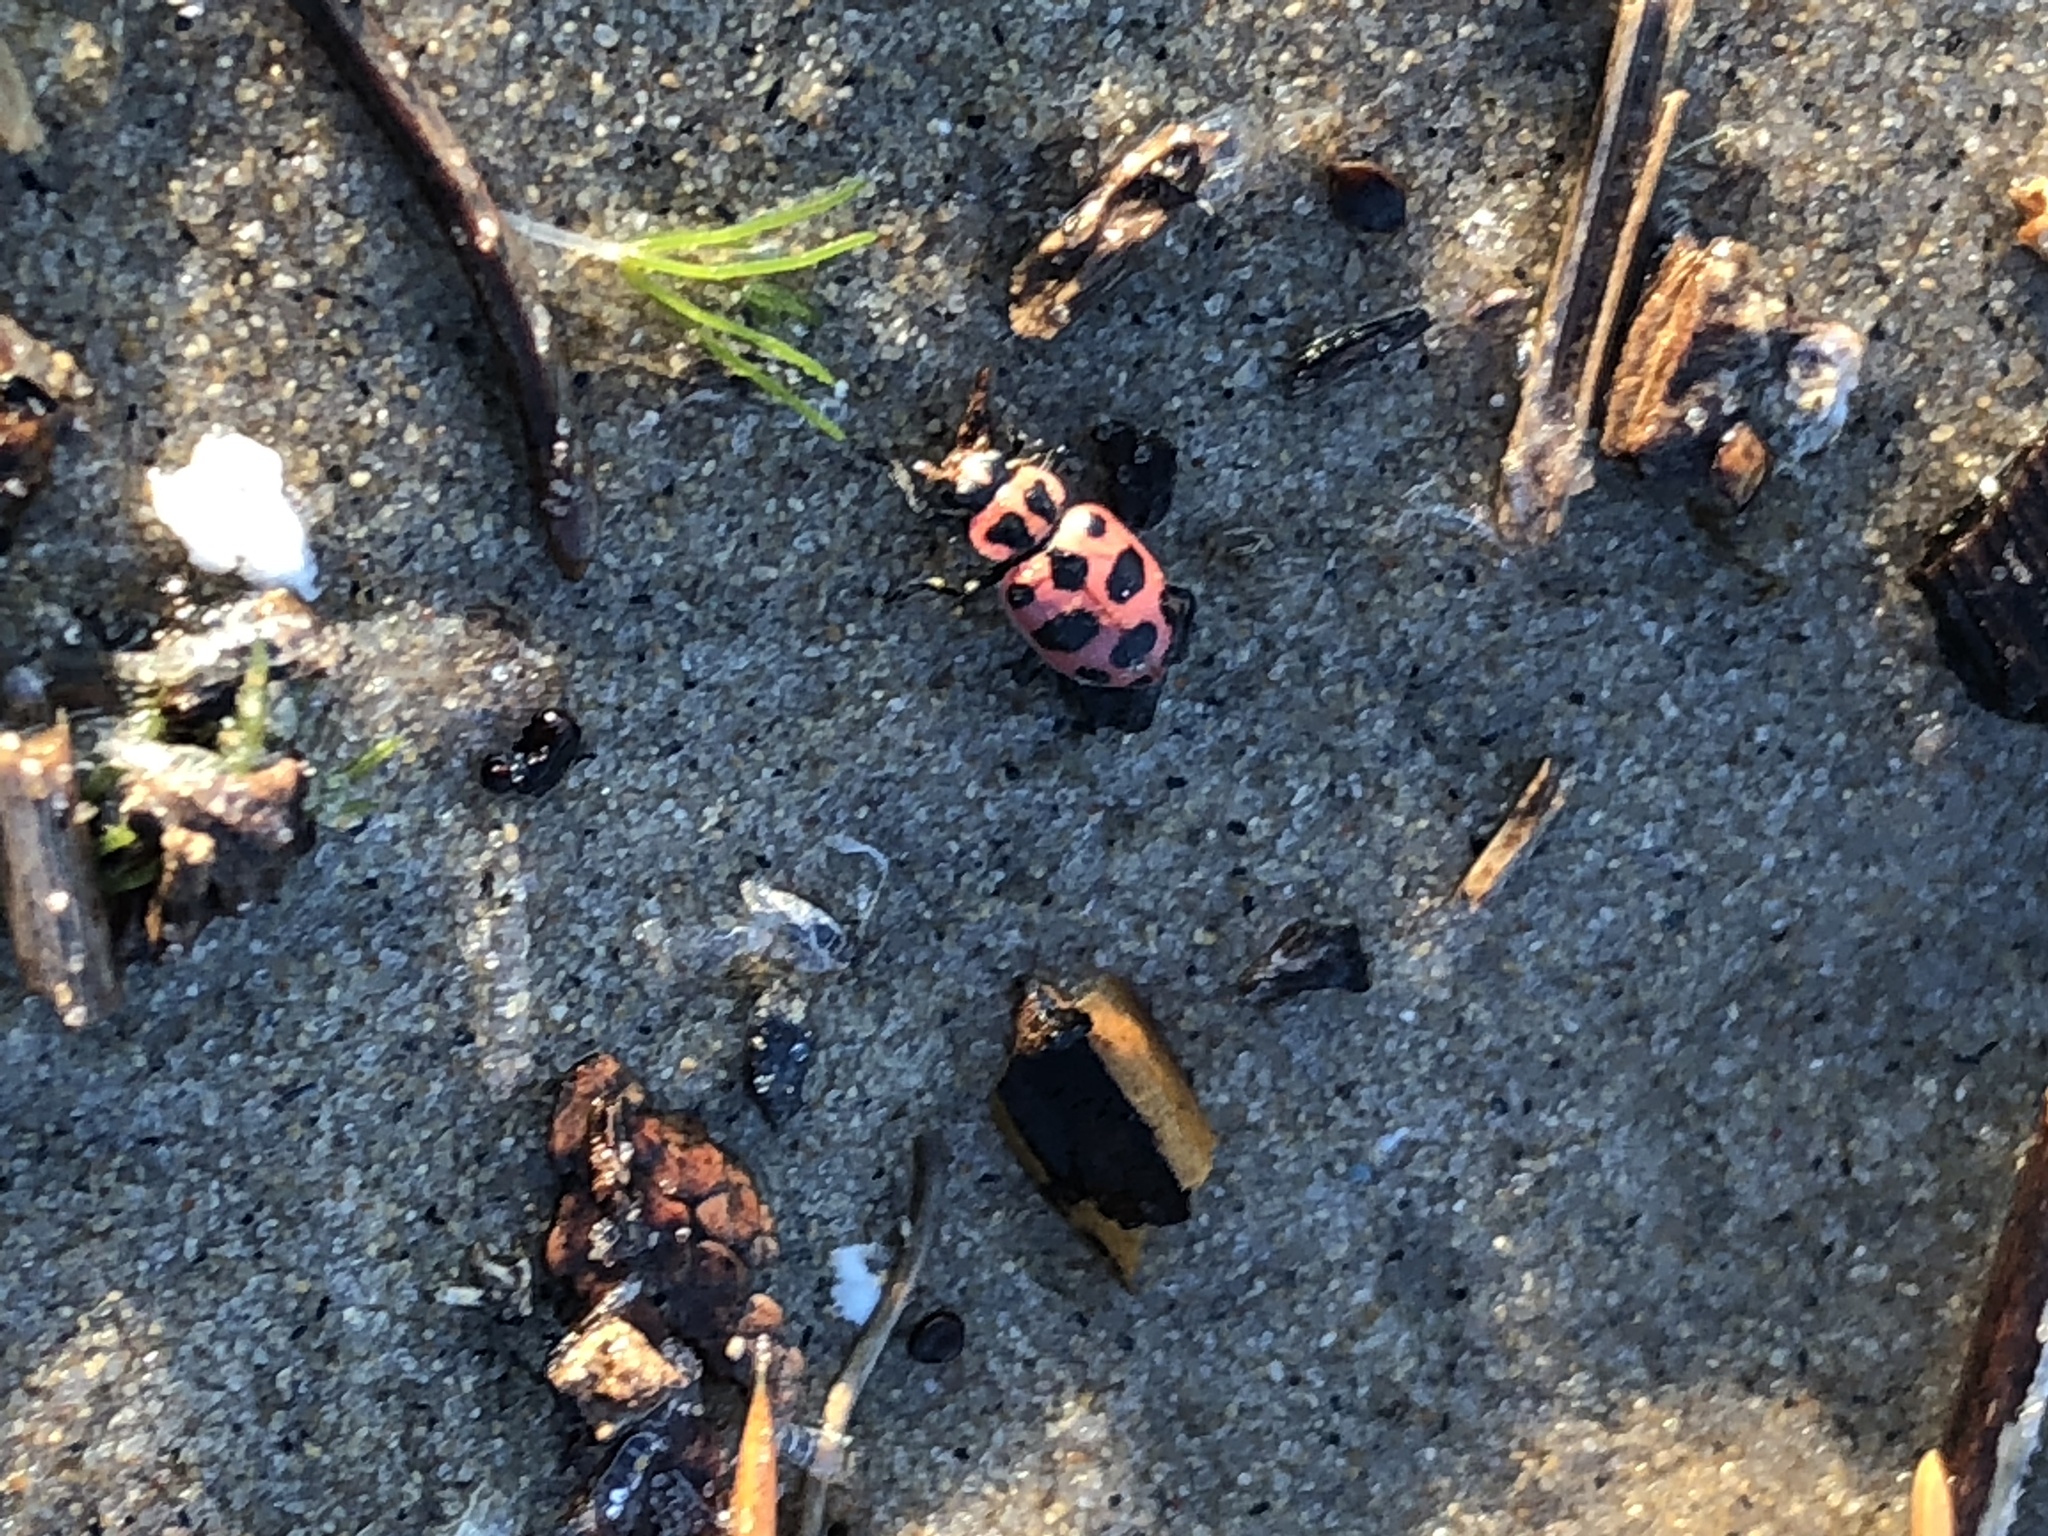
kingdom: Animalia
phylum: Arthropoda
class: Insecta
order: Coleoptera
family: Coccinellidae
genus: Coleomegilla
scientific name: Coleomegilla maculata
